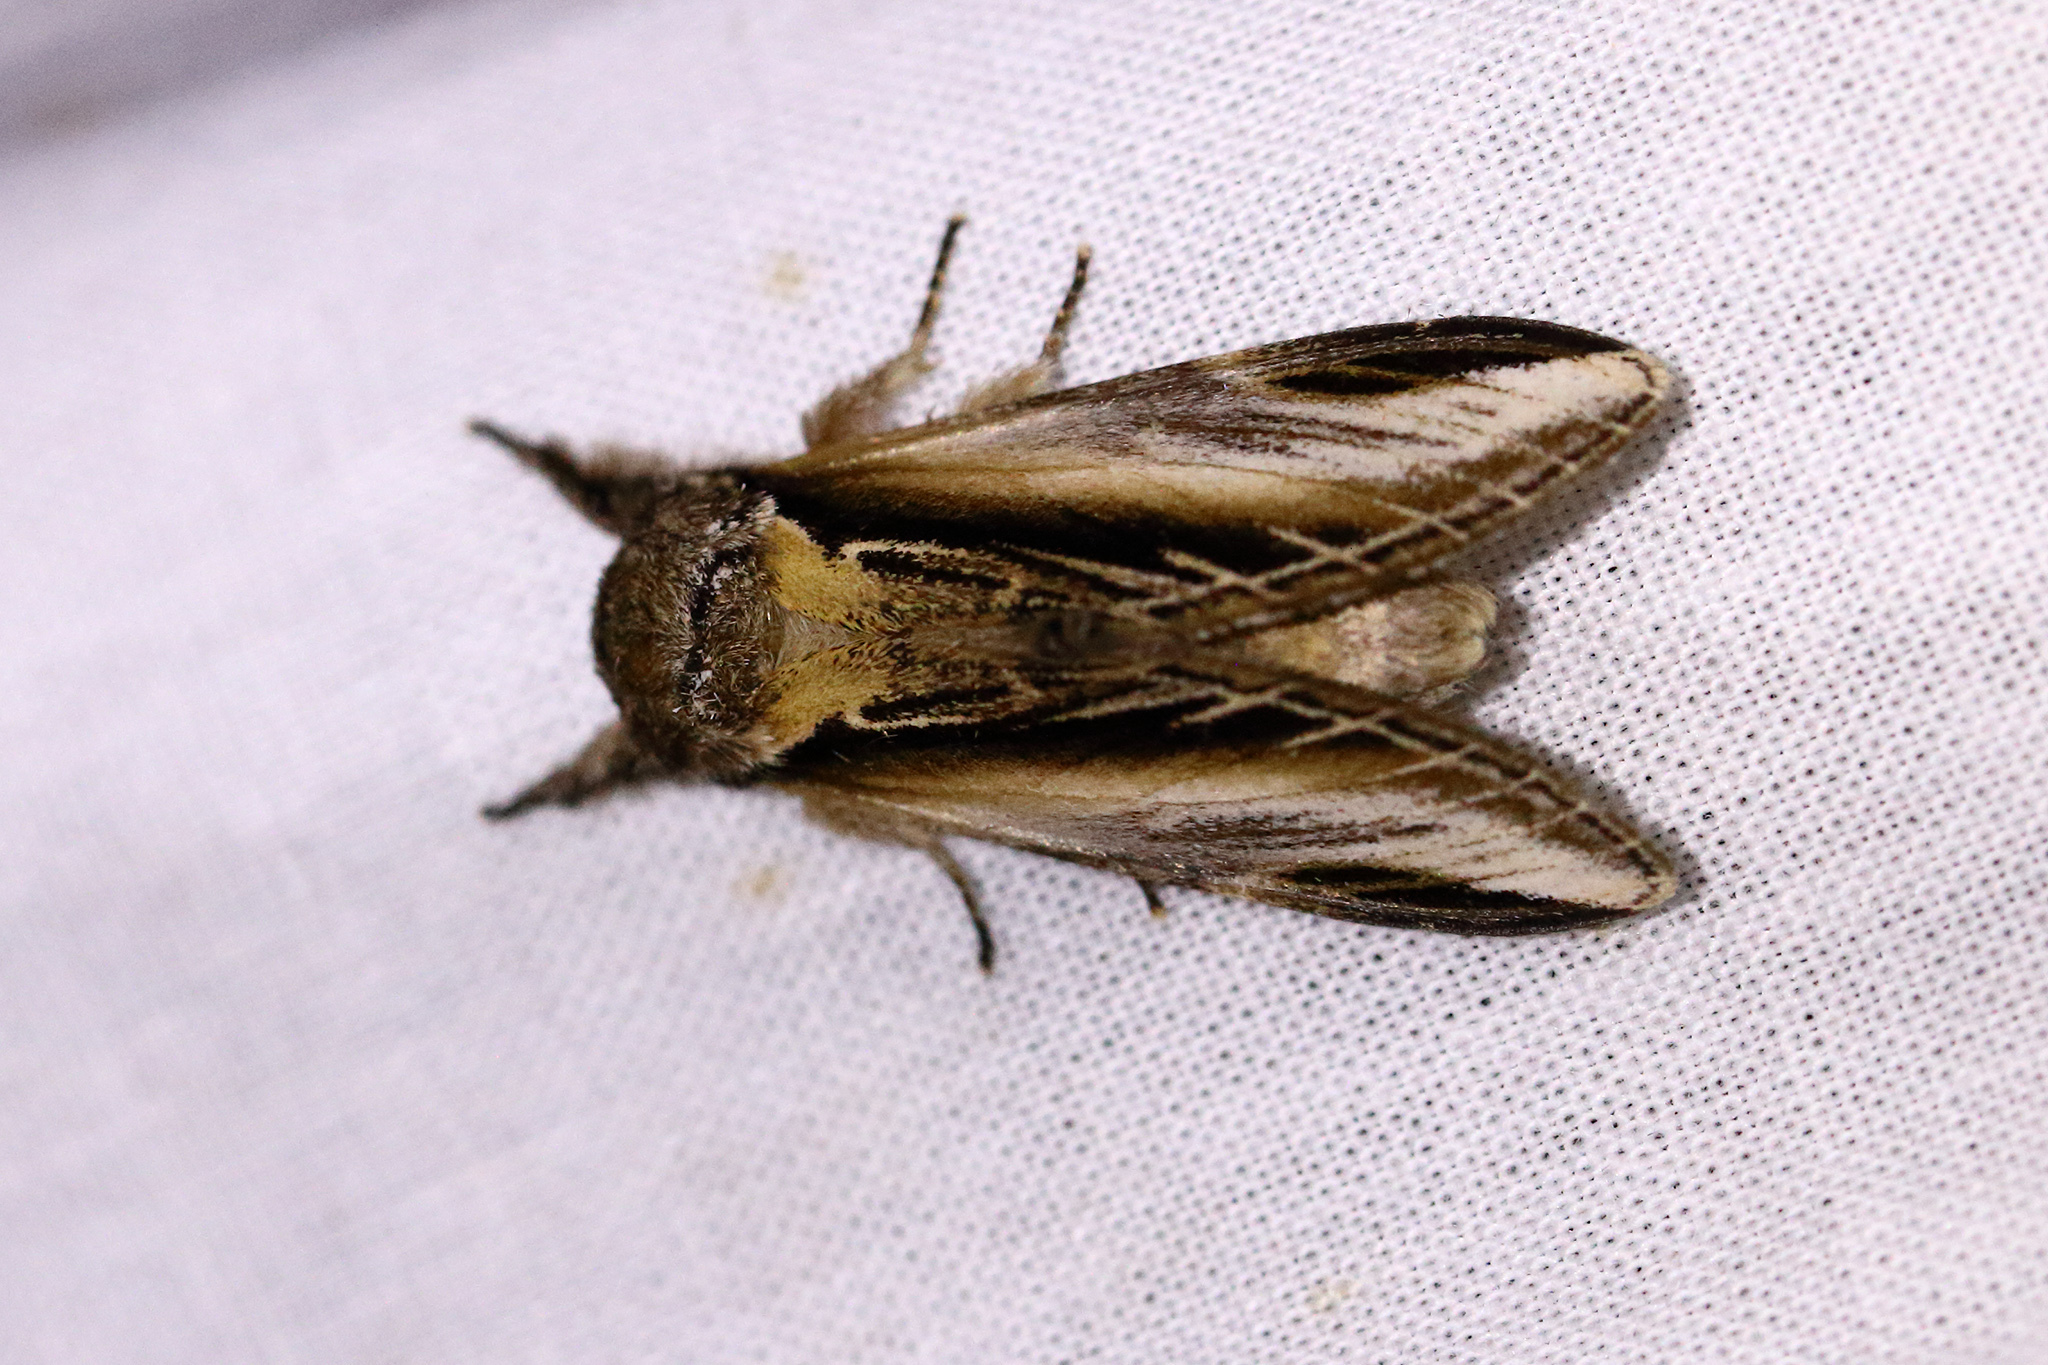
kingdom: Animalia
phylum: Arthropoda
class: Insecta
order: Lepidoptera
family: Notodontidae
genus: Pheosia
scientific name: Pheosia tremula
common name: Swallow prominent
